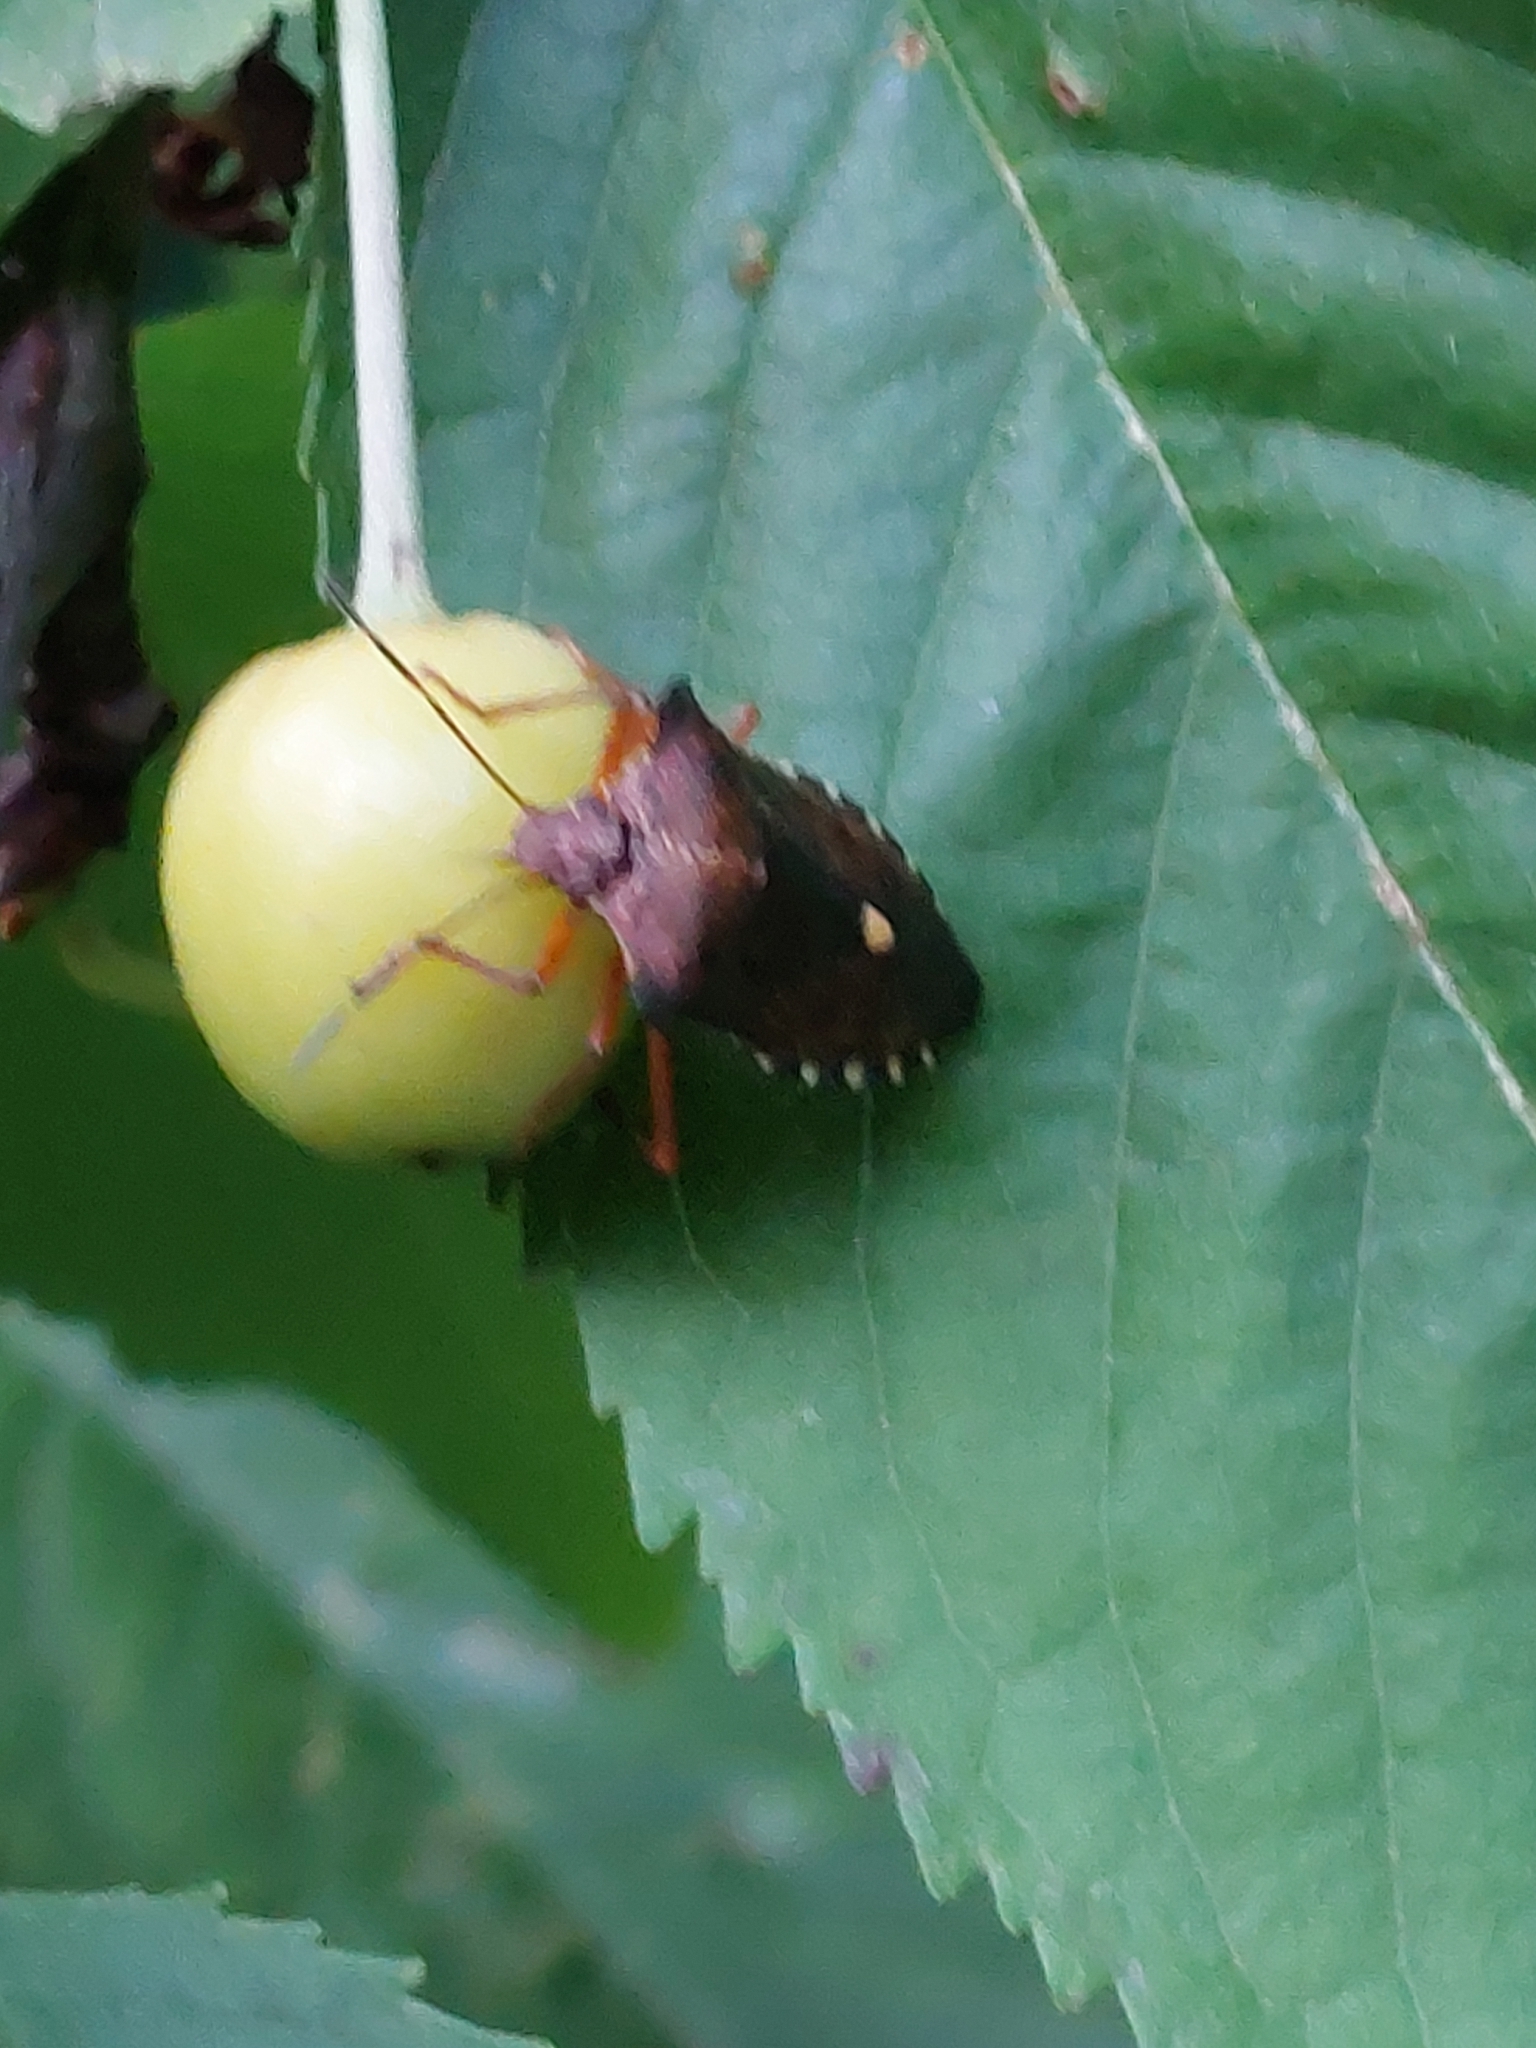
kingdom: Animalia
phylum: Arthropoda
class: Insecta
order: Hemiptera
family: Pentatomidae
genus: Pentatoma
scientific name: Pentatoma rufipes
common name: Forest bug
